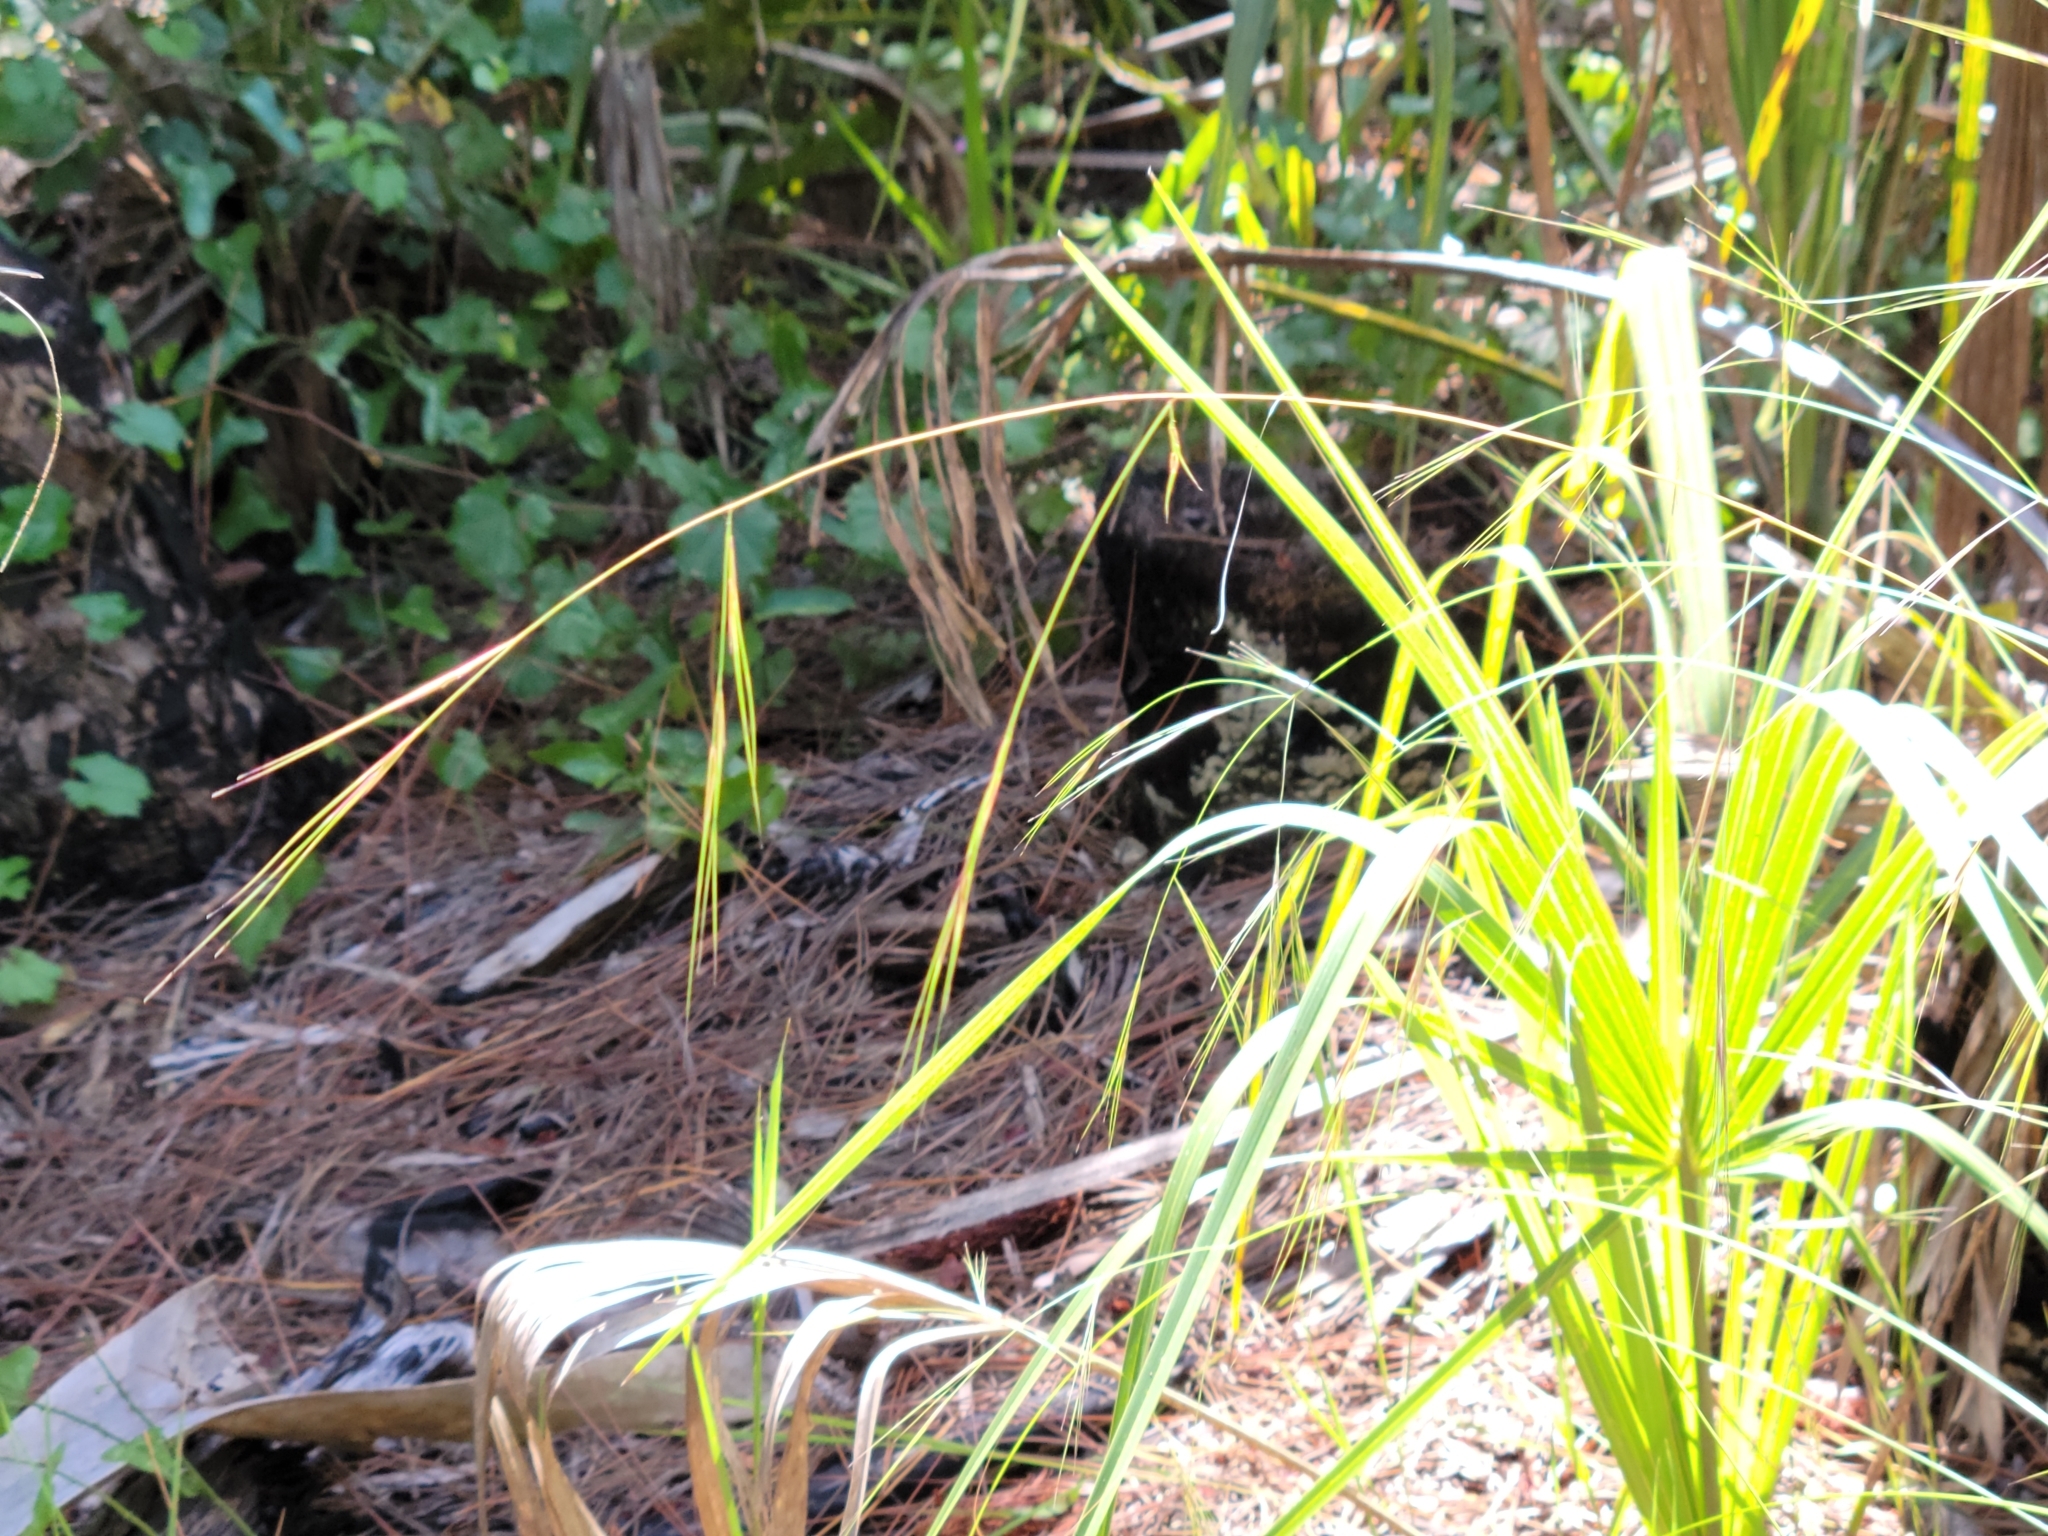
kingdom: Plantae
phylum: Tracheophyta
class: Liliopsida
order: Poales
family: Poaceae
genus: Aristida
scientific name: Aristida patula
